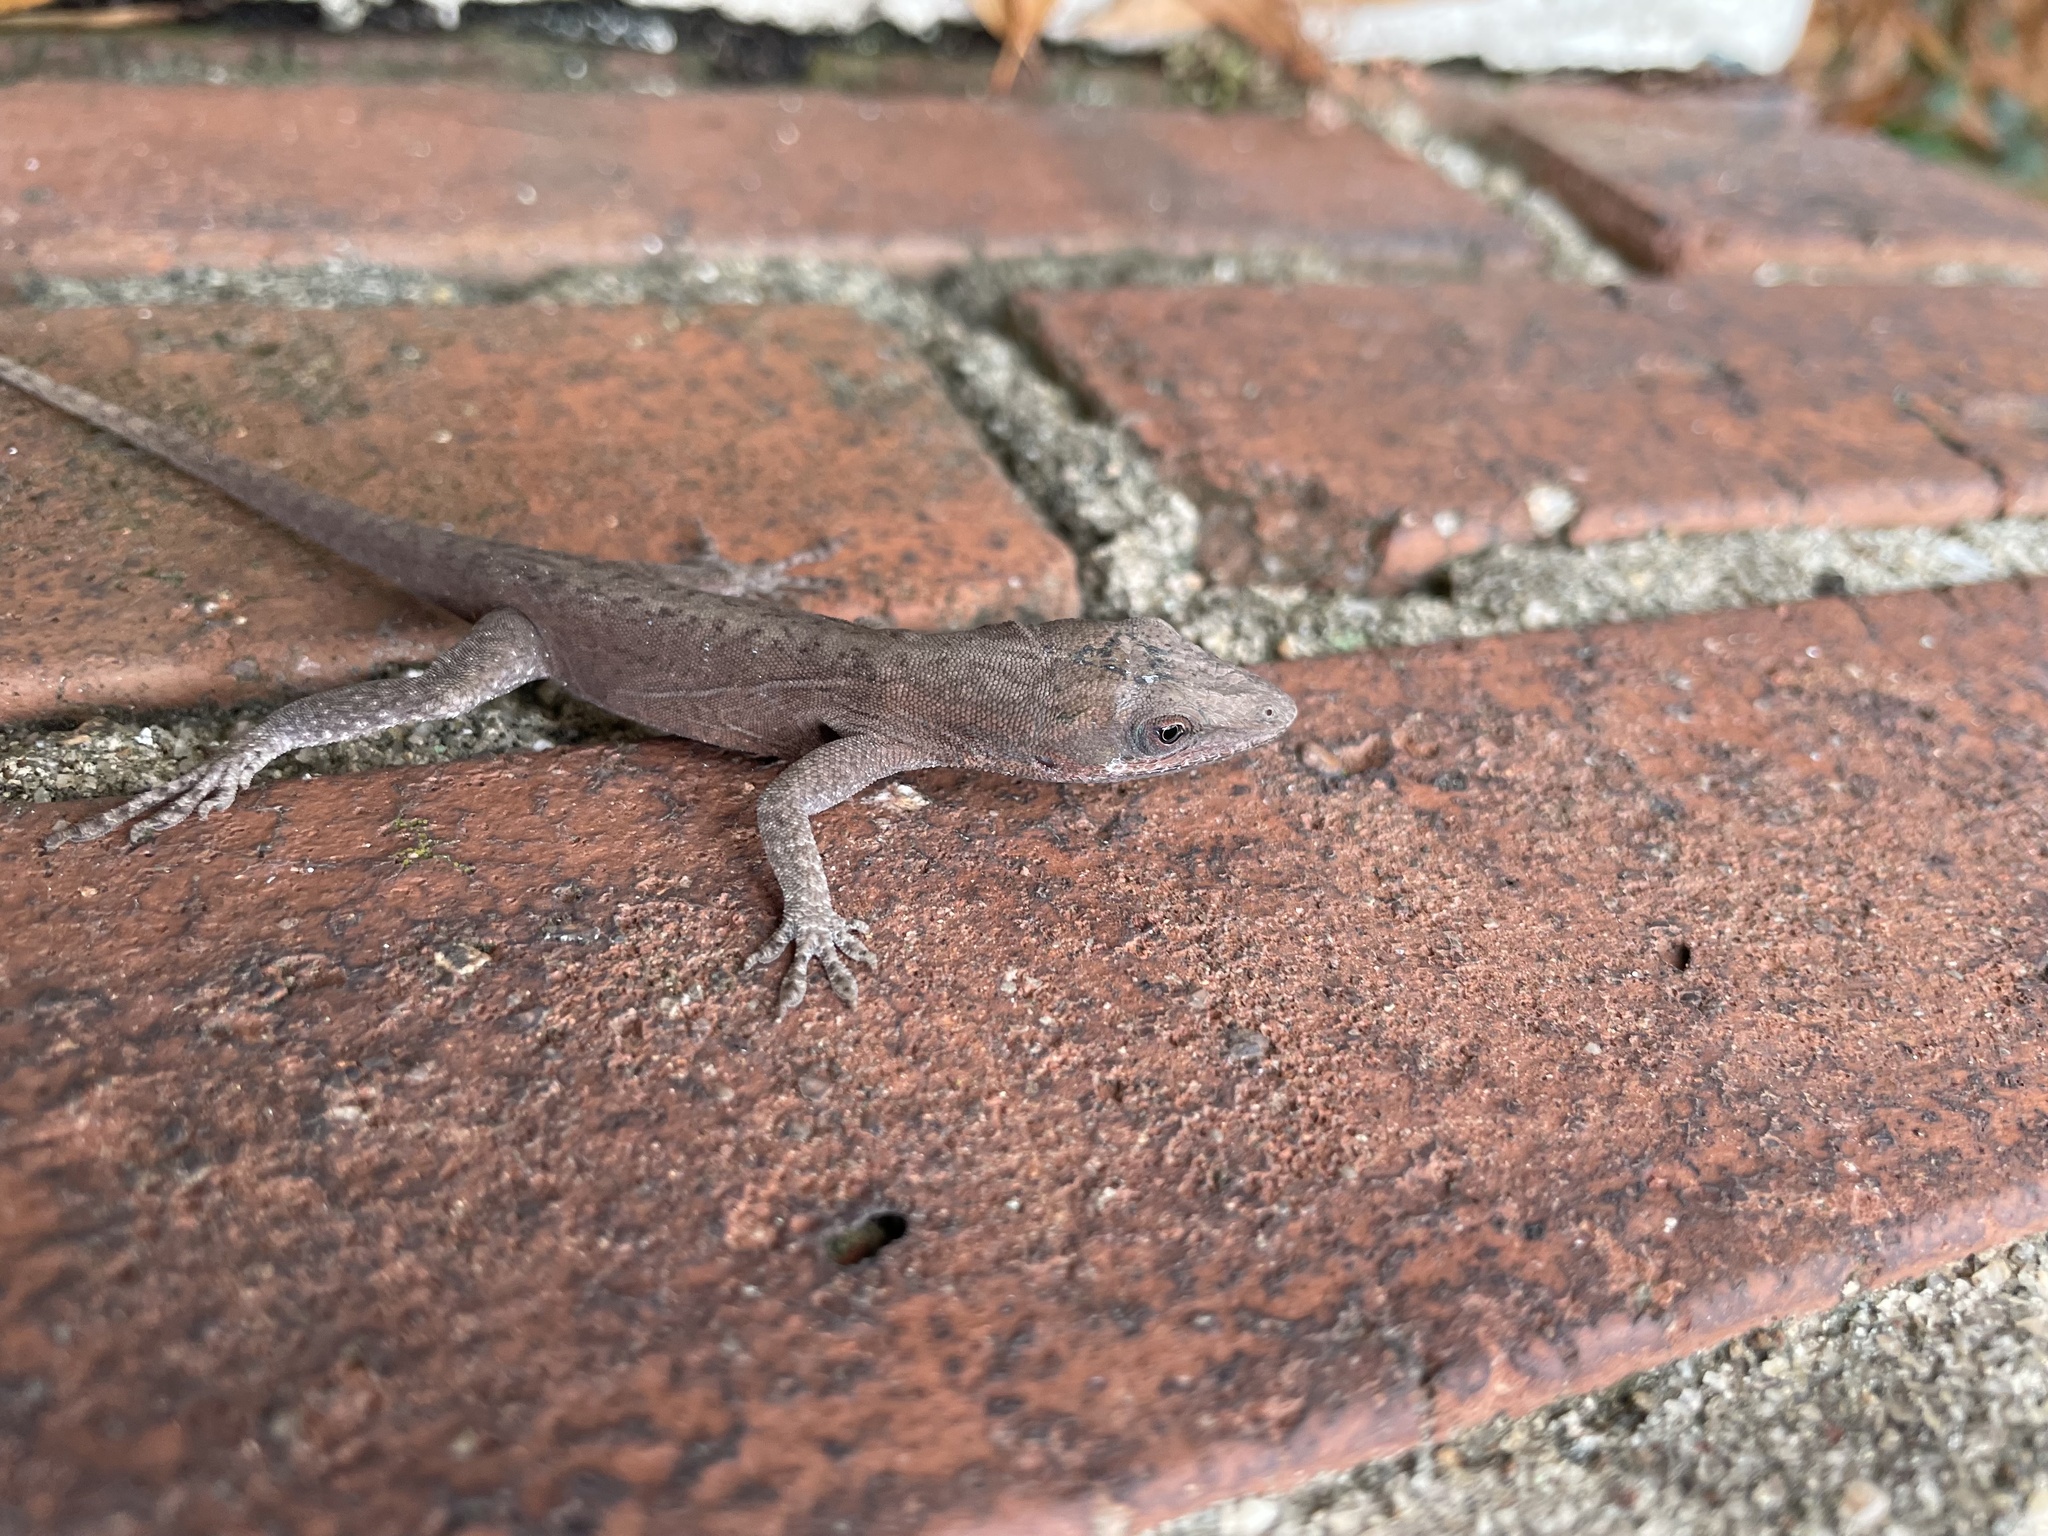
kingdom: Animalia
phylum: Chordata
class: Squamata
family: Dactyloidae
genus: Anolis
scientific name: Anolis carolinensis
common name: Green anole
